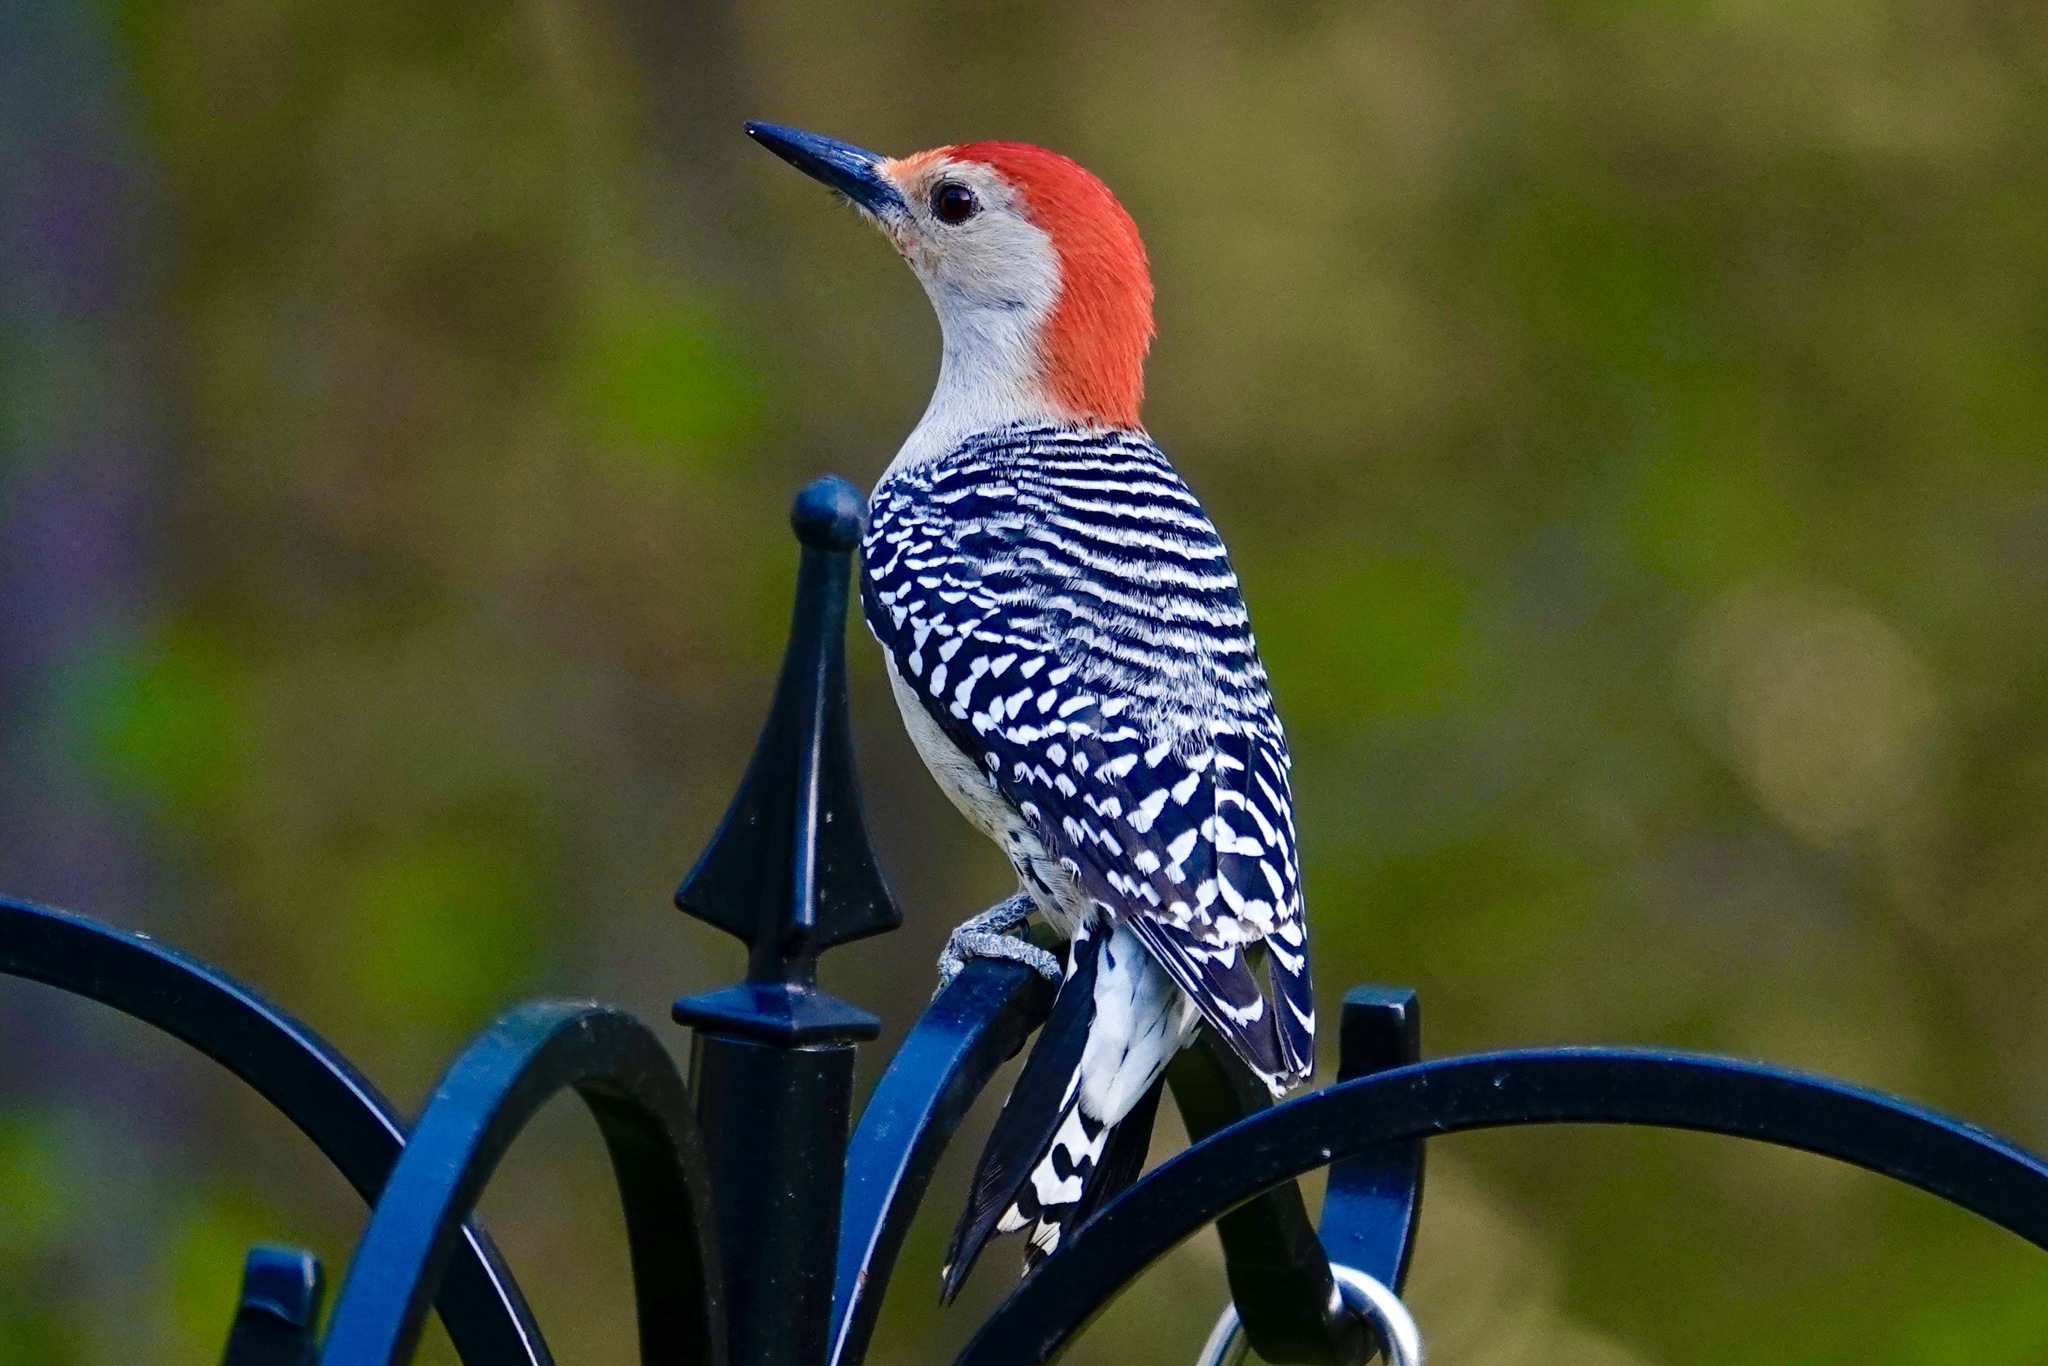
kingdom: Animalia
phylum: Chordata
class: Aves
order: Piciformes
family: Picidae
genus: Melanerpes
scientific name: Melanerpes carolinus
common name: Red-bellied woodpecker
